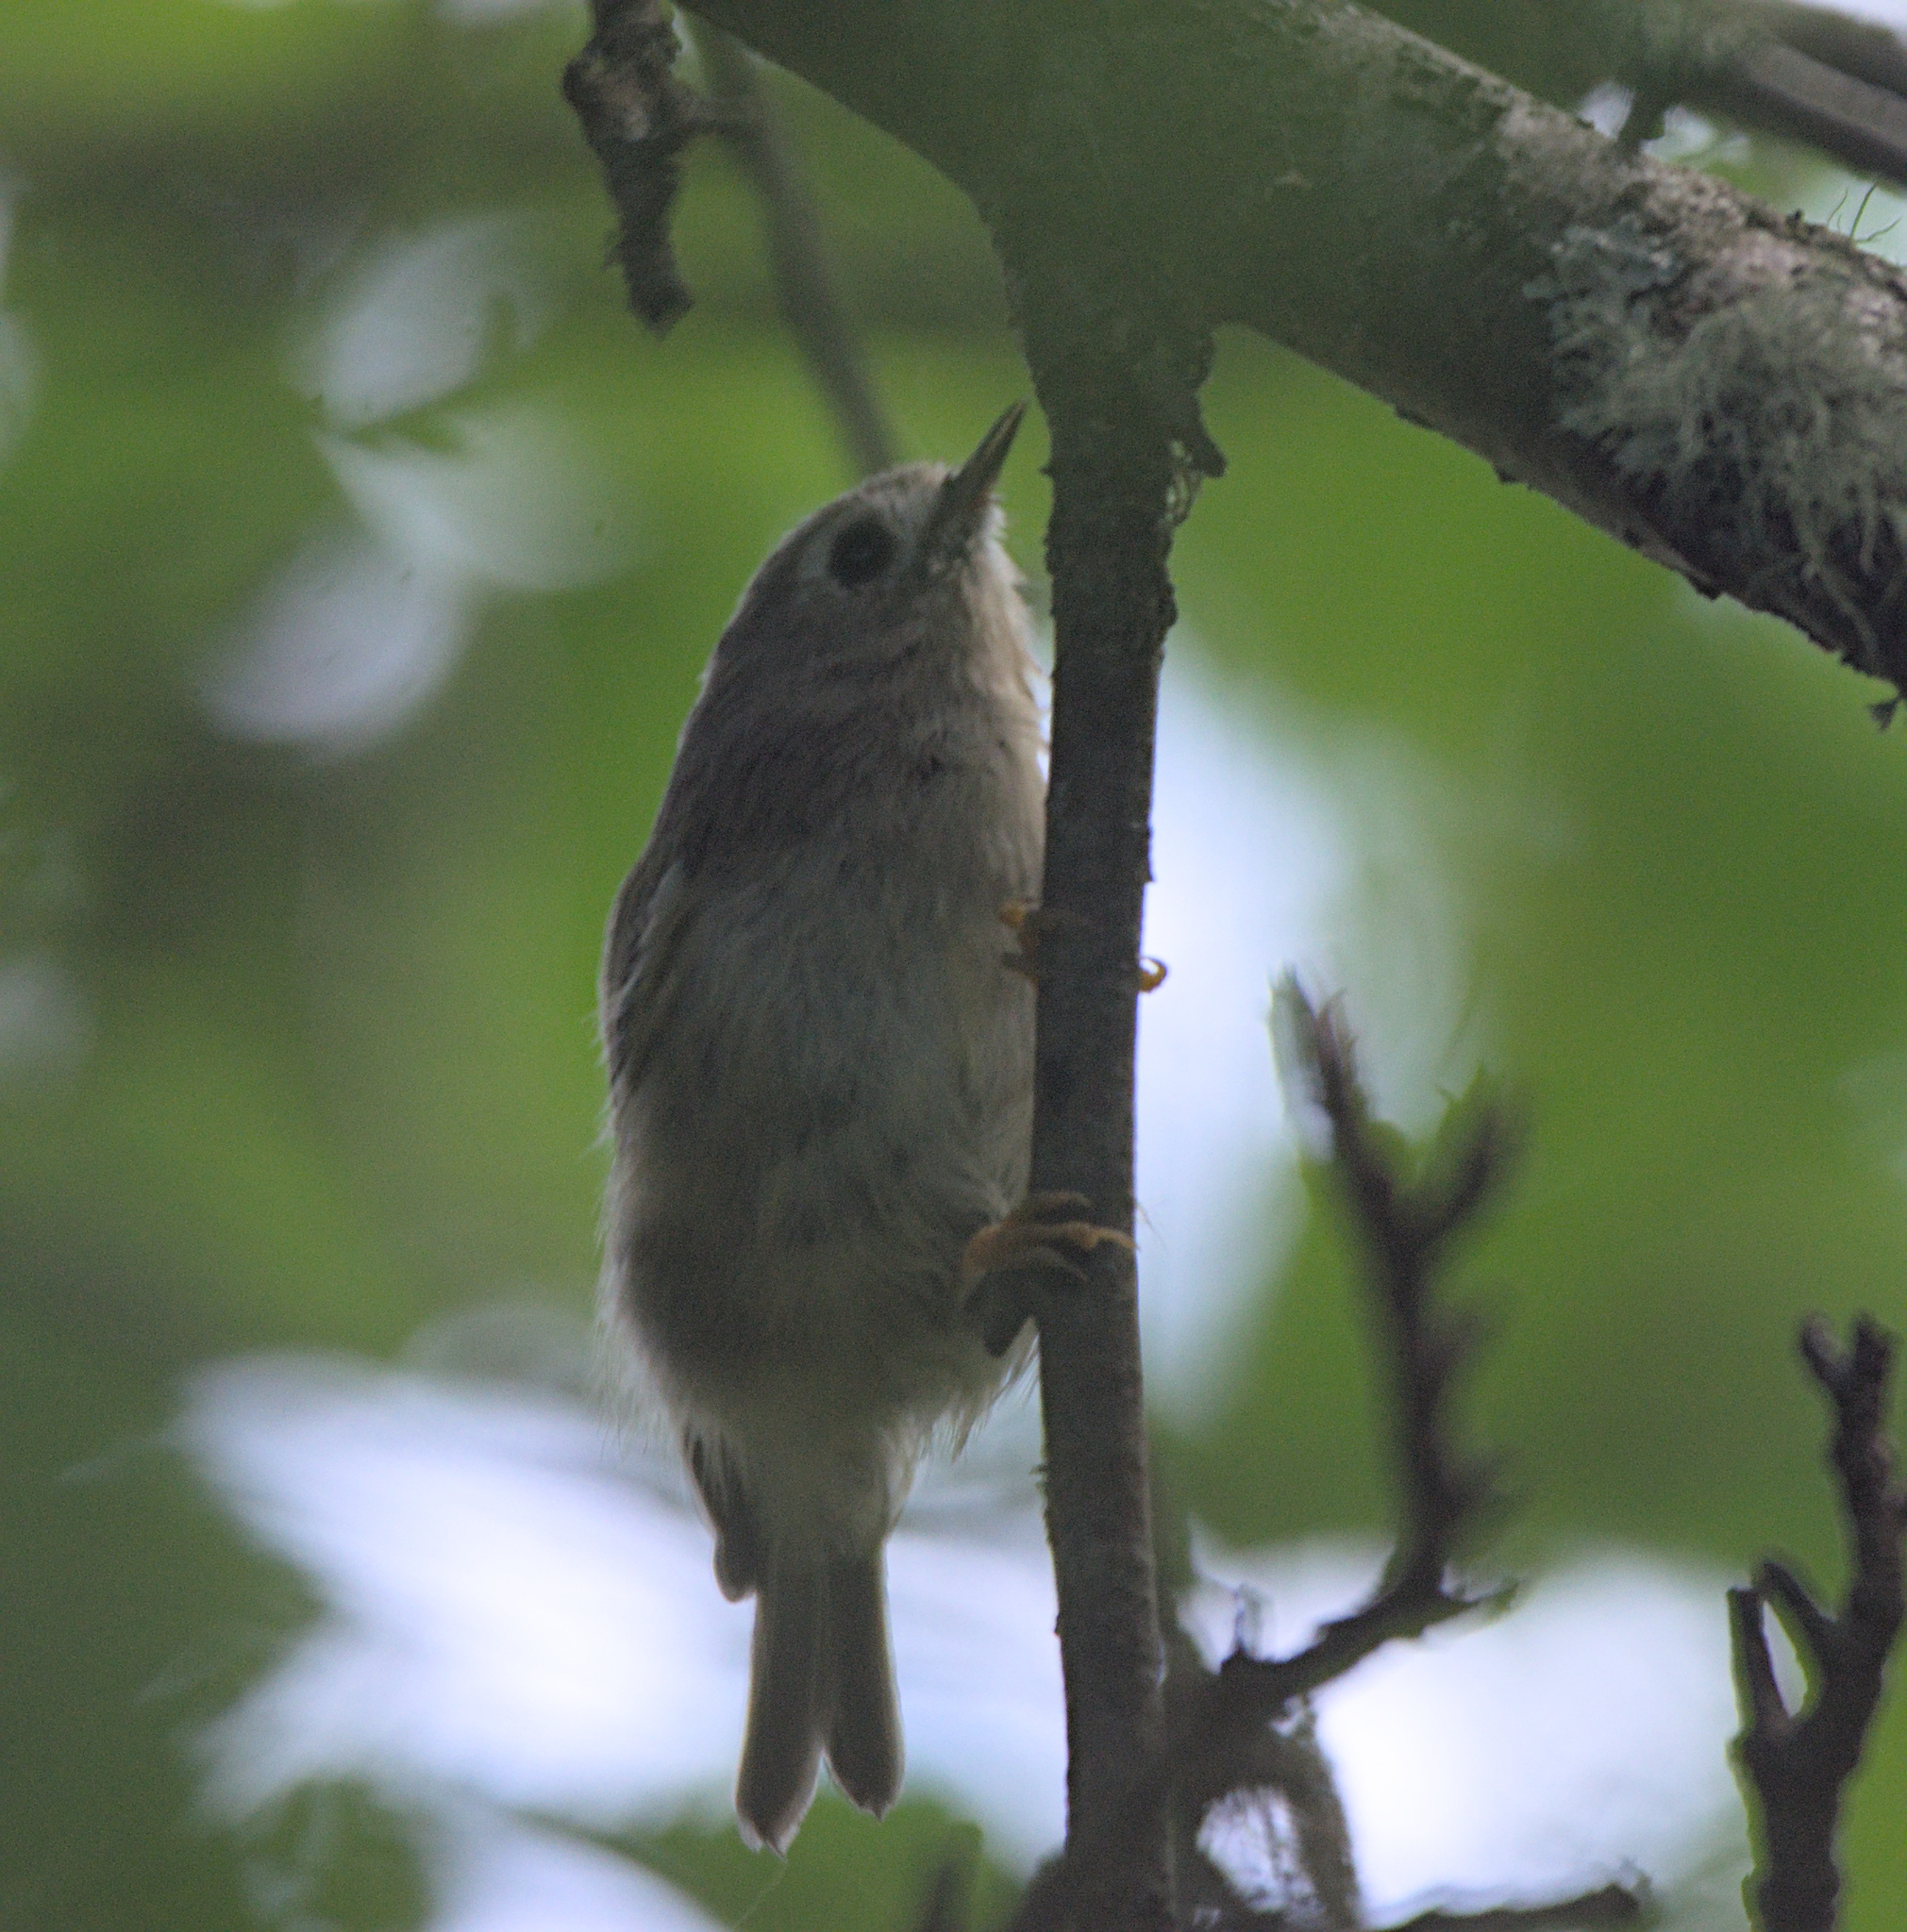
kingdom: Animalia
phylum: Chordata
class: Aves
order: Passeriformes
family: Regulidae
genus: Regulus
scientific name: Regulus regulus
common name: Goldcrest
